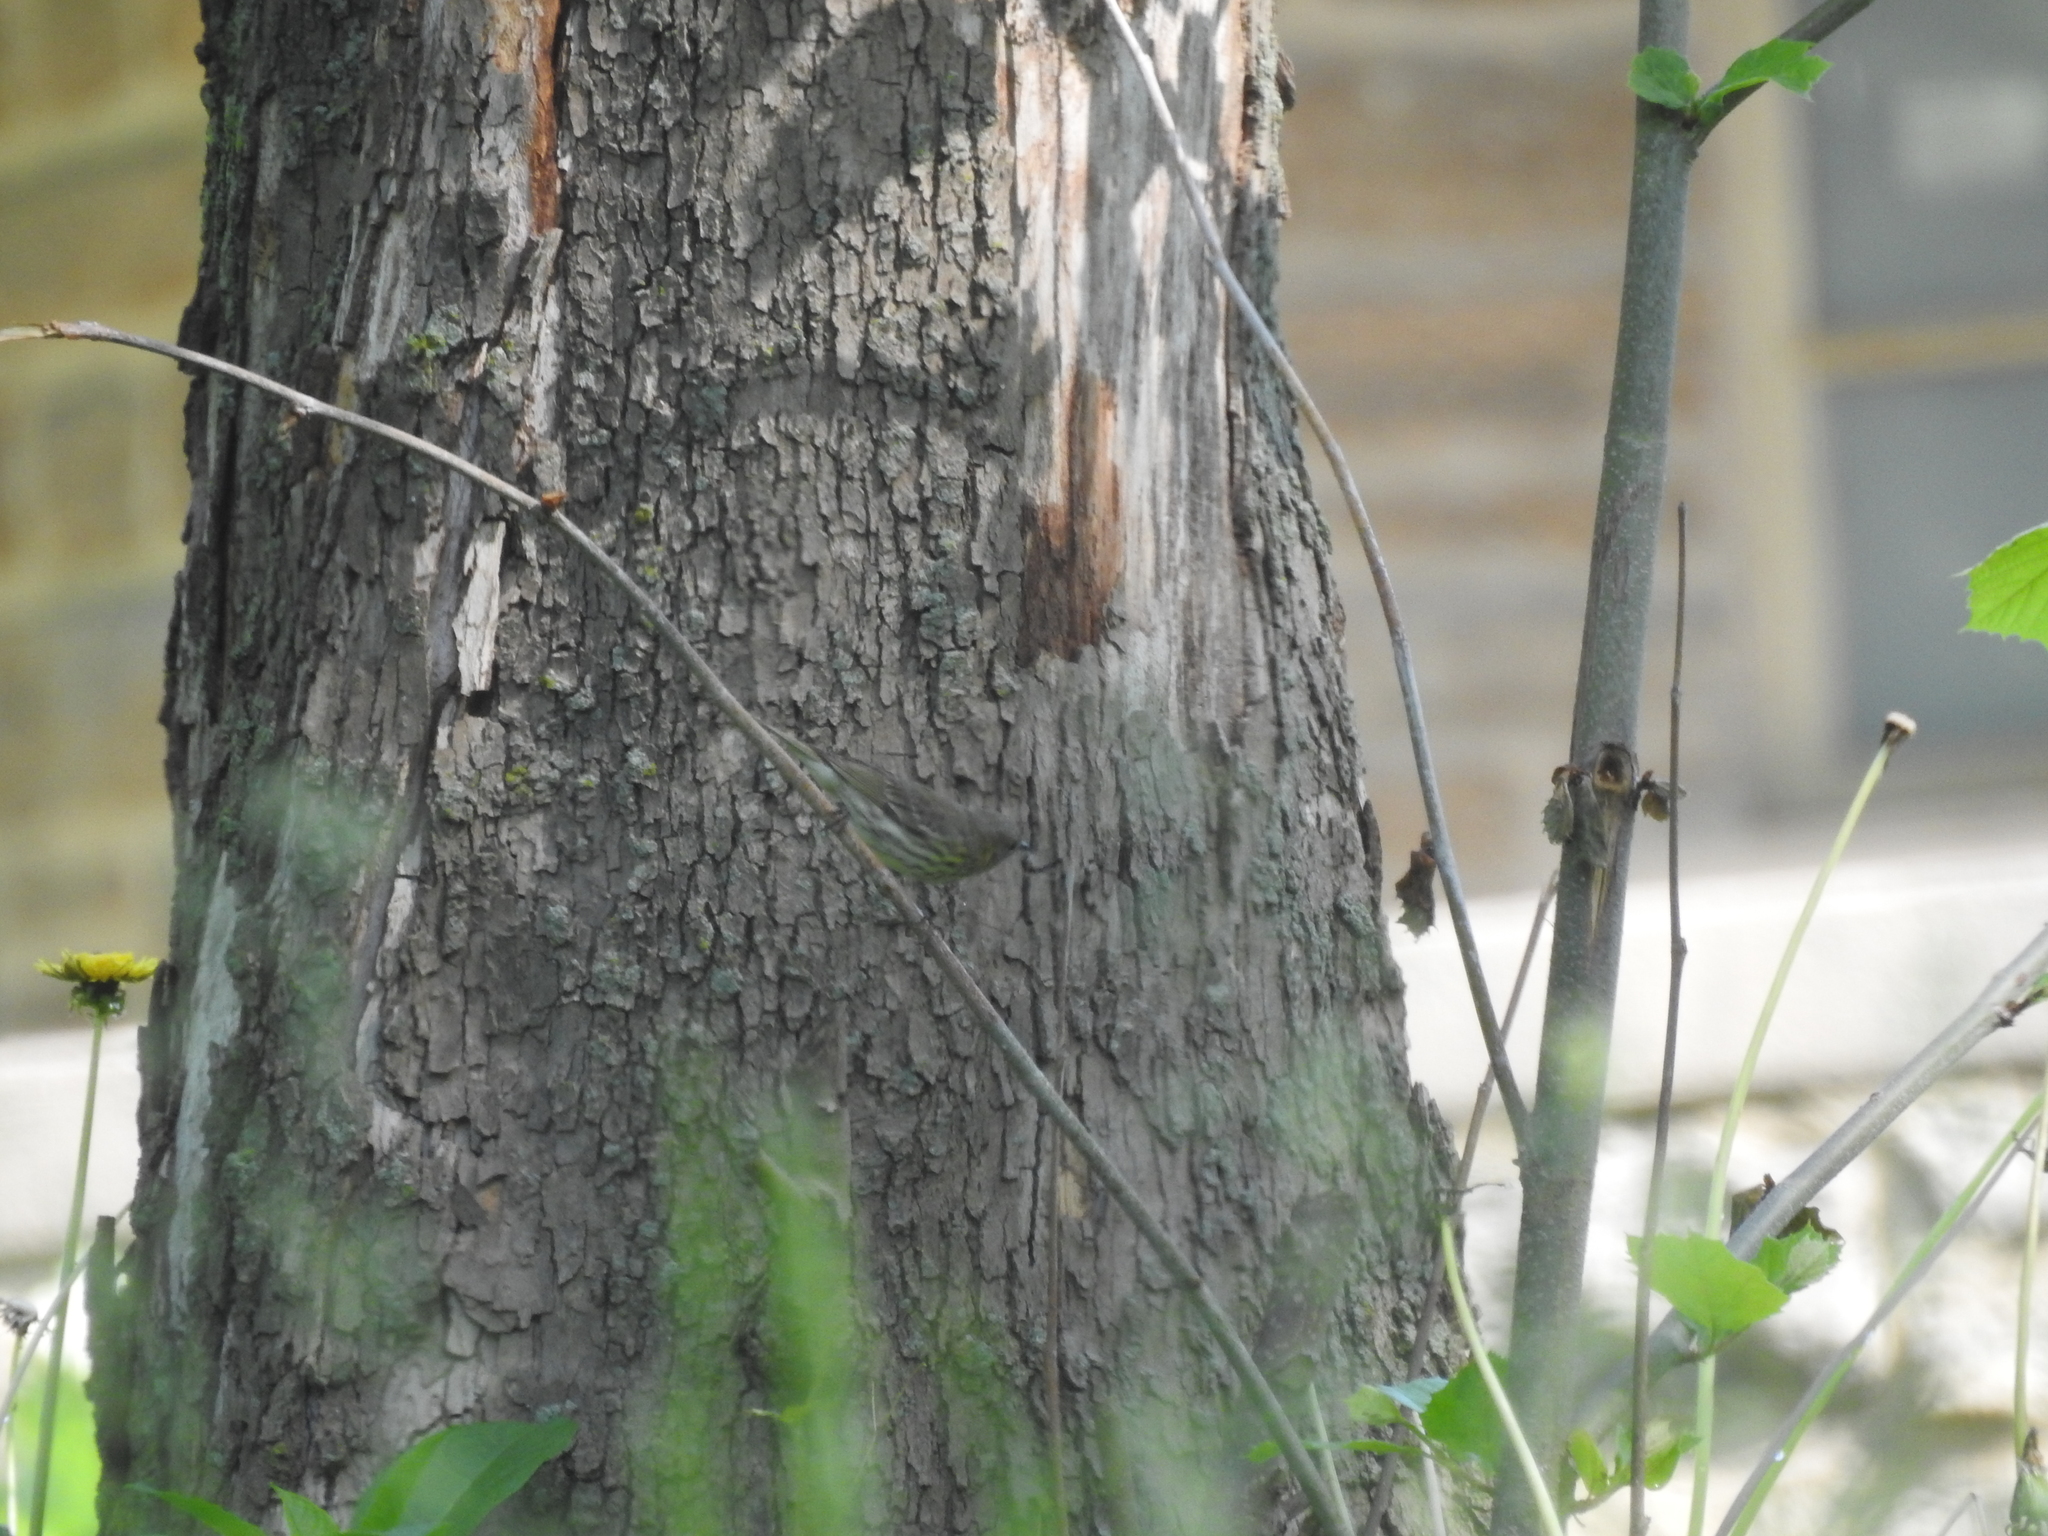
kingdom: Animalia
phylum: Chordata
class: Aves
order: Passeriformes
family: Parulidae
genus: Setophaga
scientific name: Setophaga tigrina
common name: Cape may warbler
